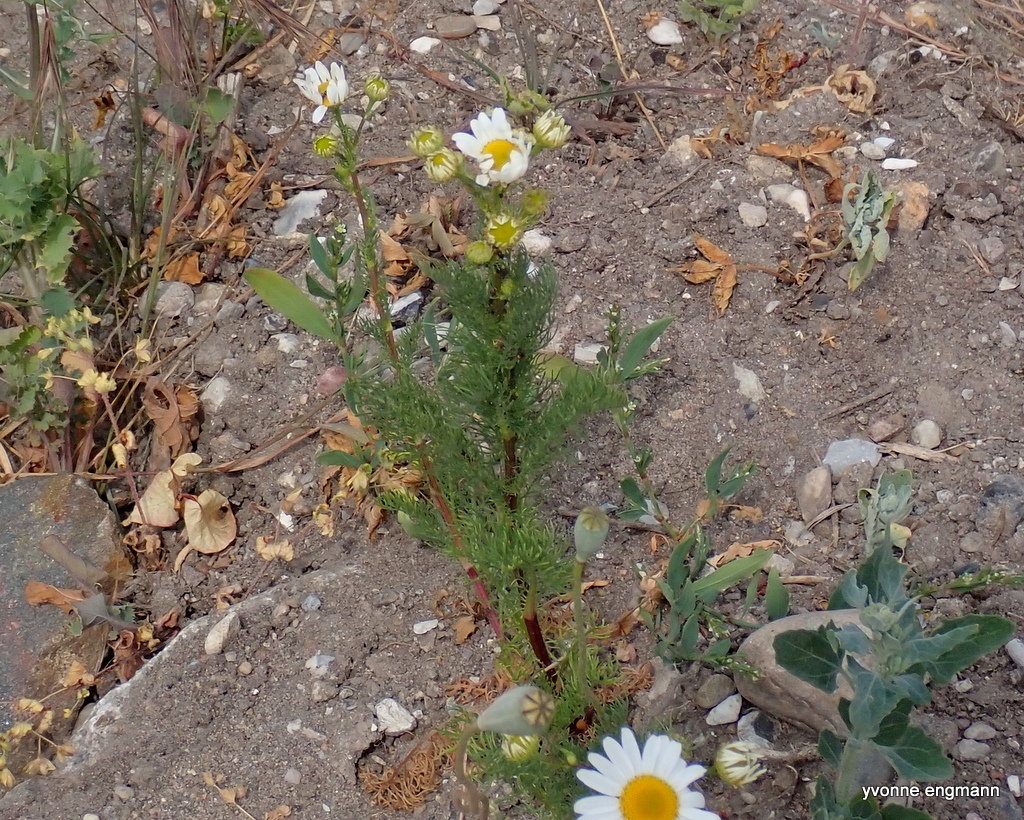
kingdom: Plantae
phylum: Tracheophyta
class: Magnoliopsida
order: Asterales
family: Asteraceae
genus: Tripleurospermum
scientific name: Tripleurospermum inodorum
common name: Scentless mayweed
